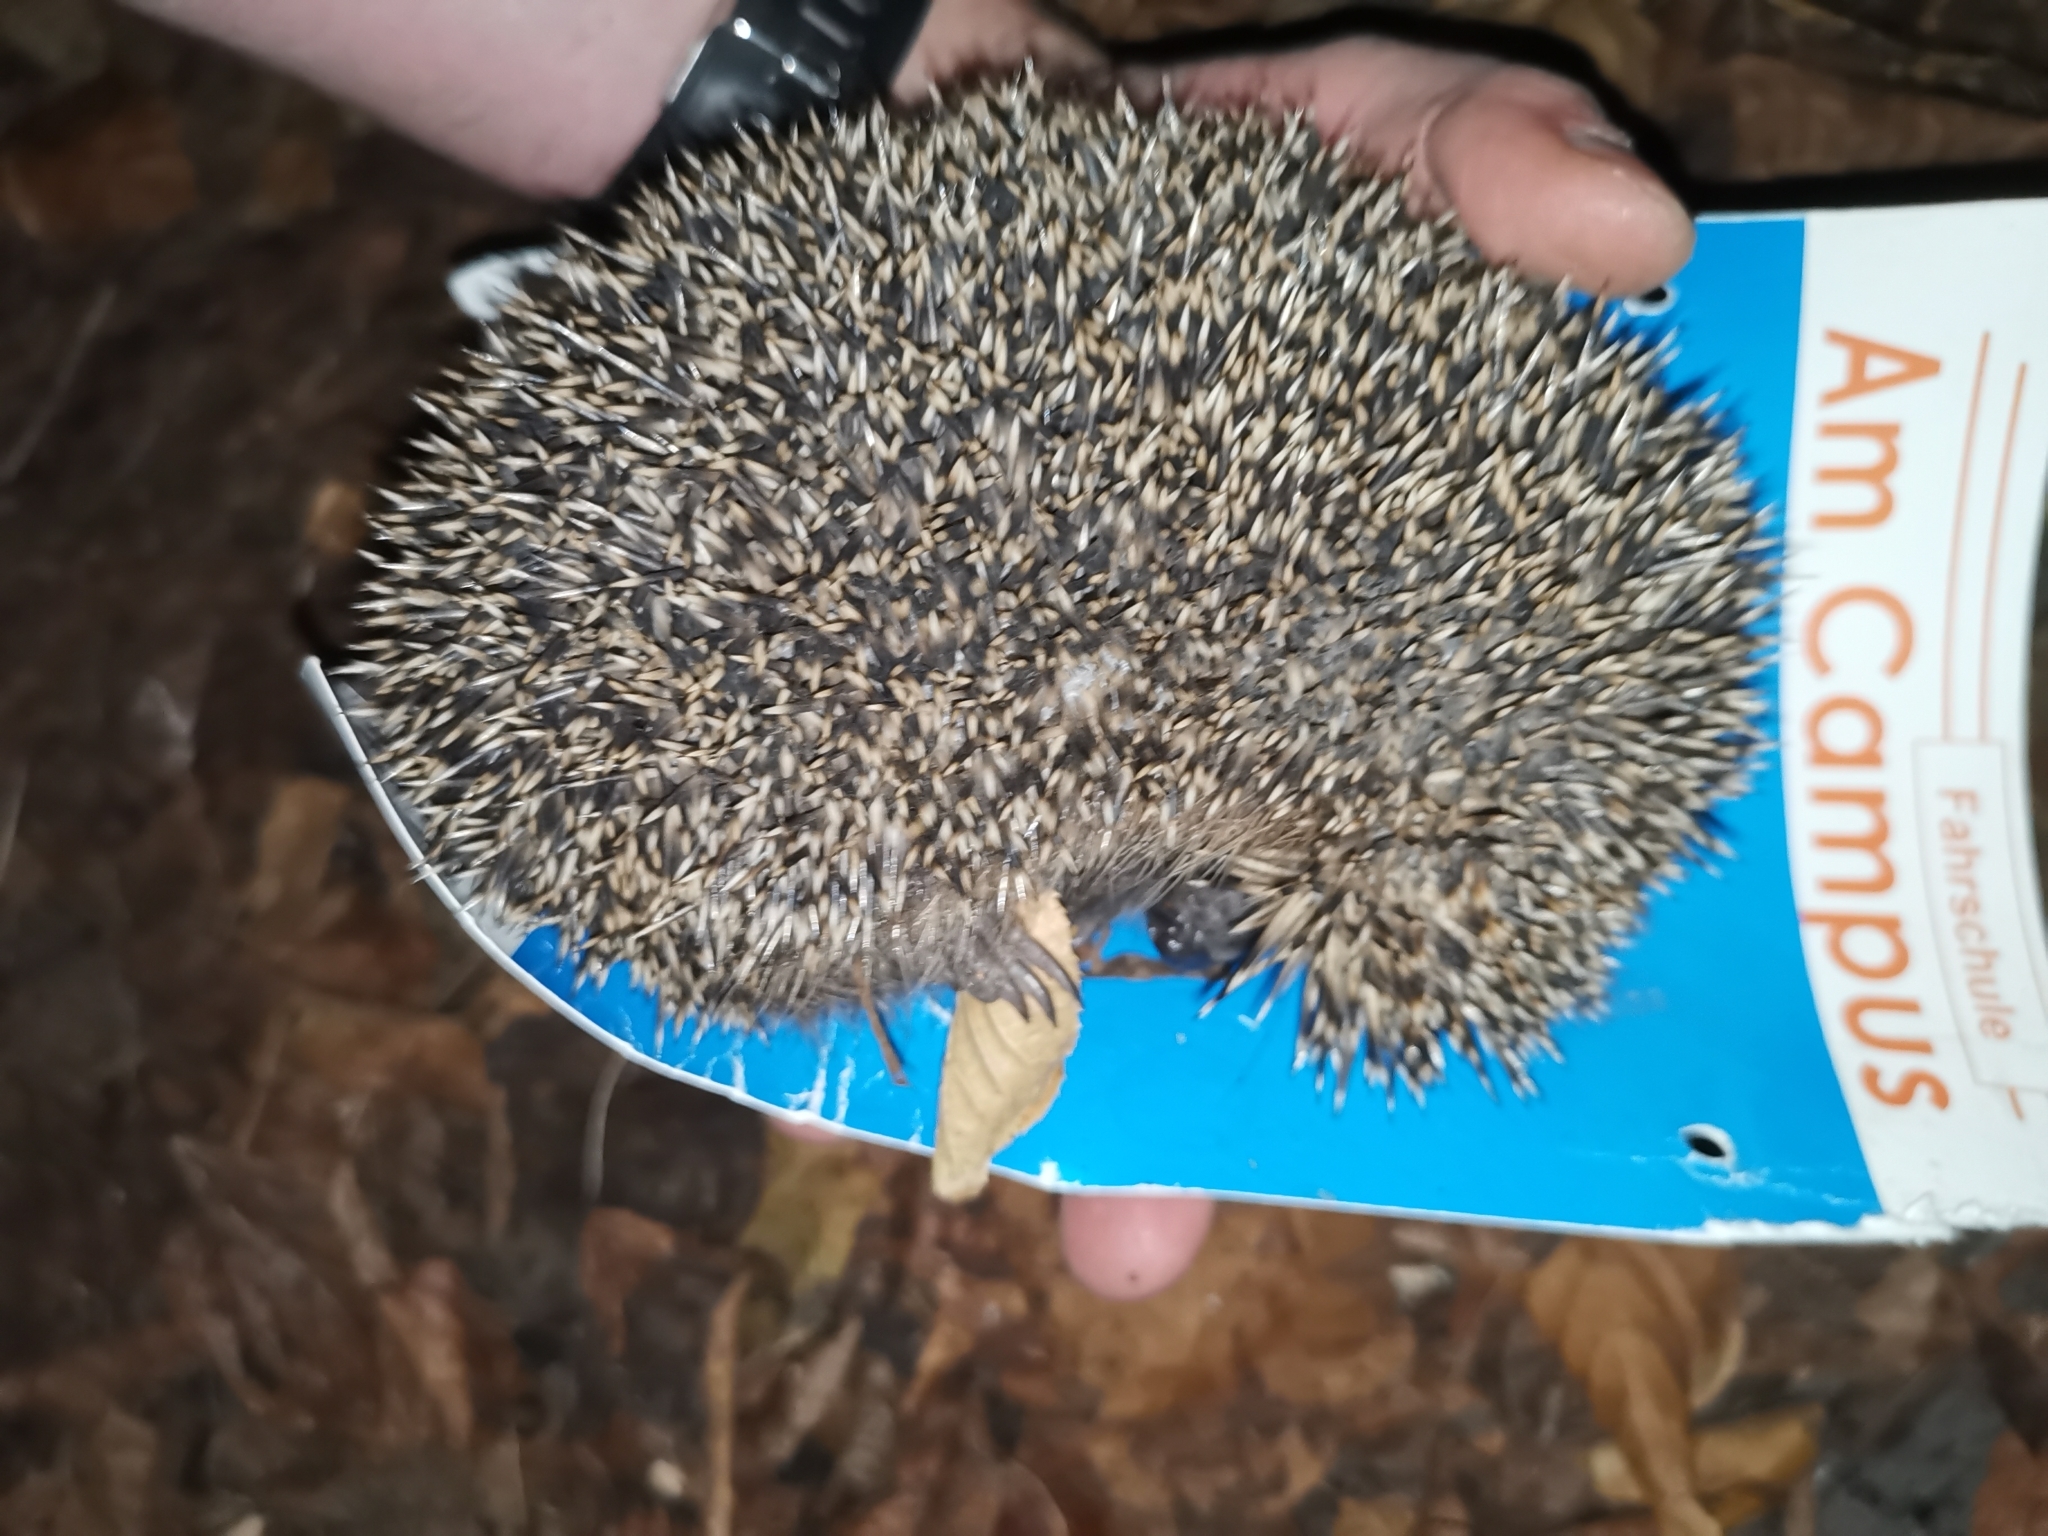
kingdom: Animalia
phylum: Chordata
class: Mammalia
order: Erinaceomorpha
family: Erinaceidae
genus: Erinaceus
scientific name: Erinaceus europaeus
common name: West european hedgehog
